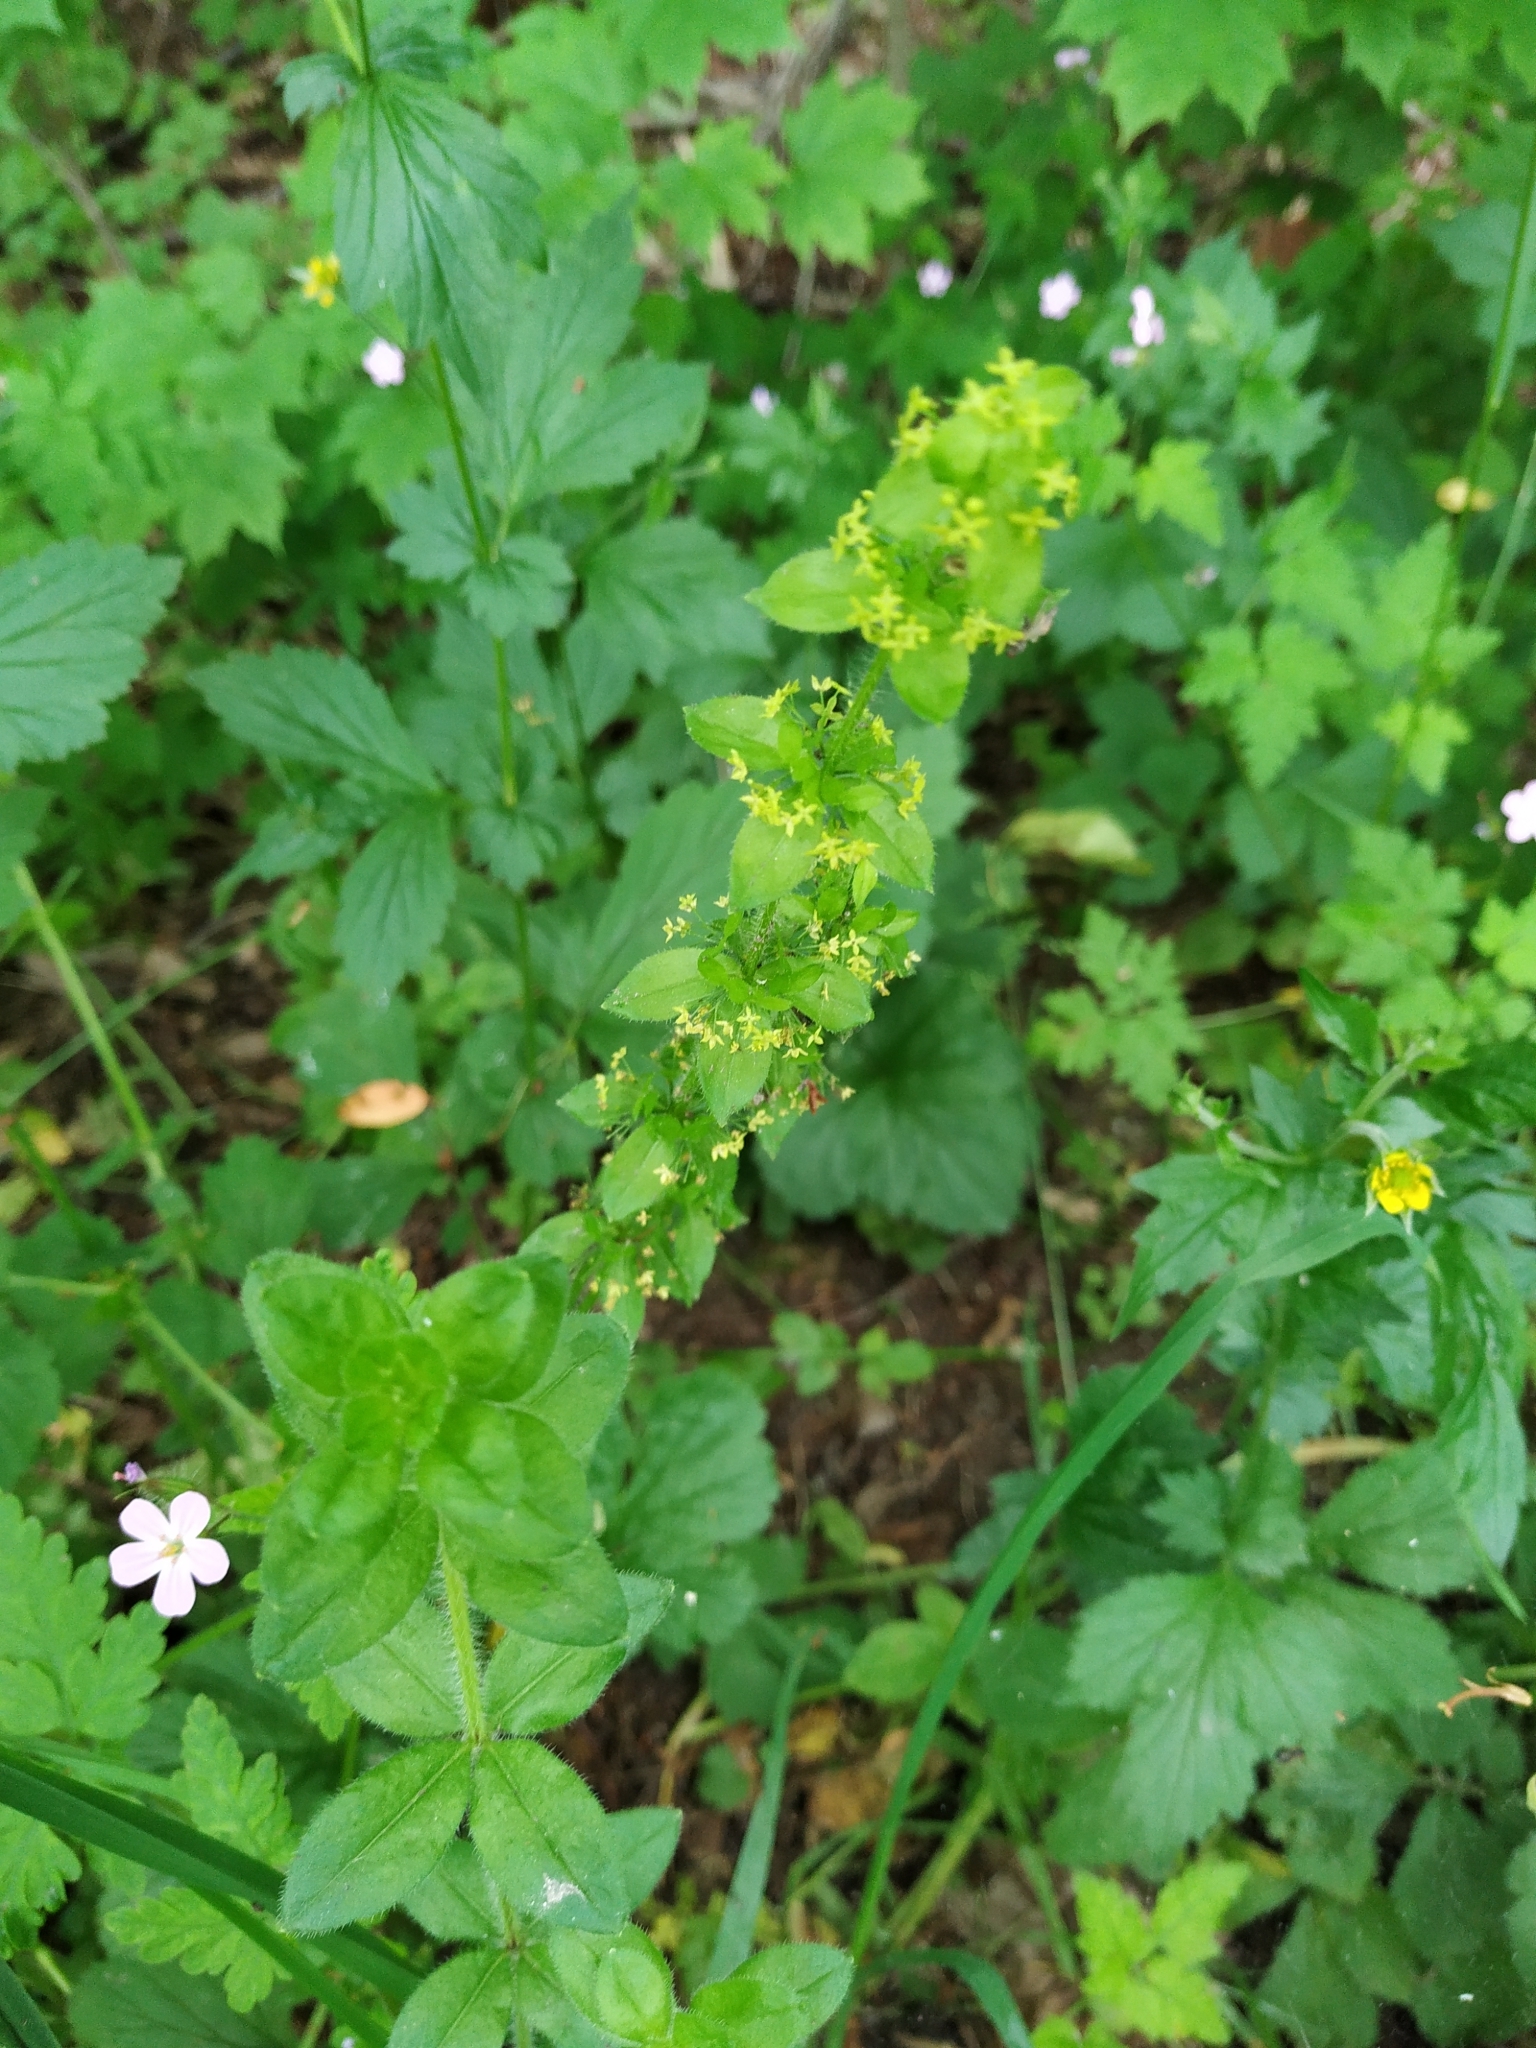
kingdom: Plantae
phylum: Tracheophyta
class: Magnoliopsida
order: Gentianales
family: Rubiaceae
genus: Cruciata
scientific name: Cruciata laevipes
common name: Crosswort
